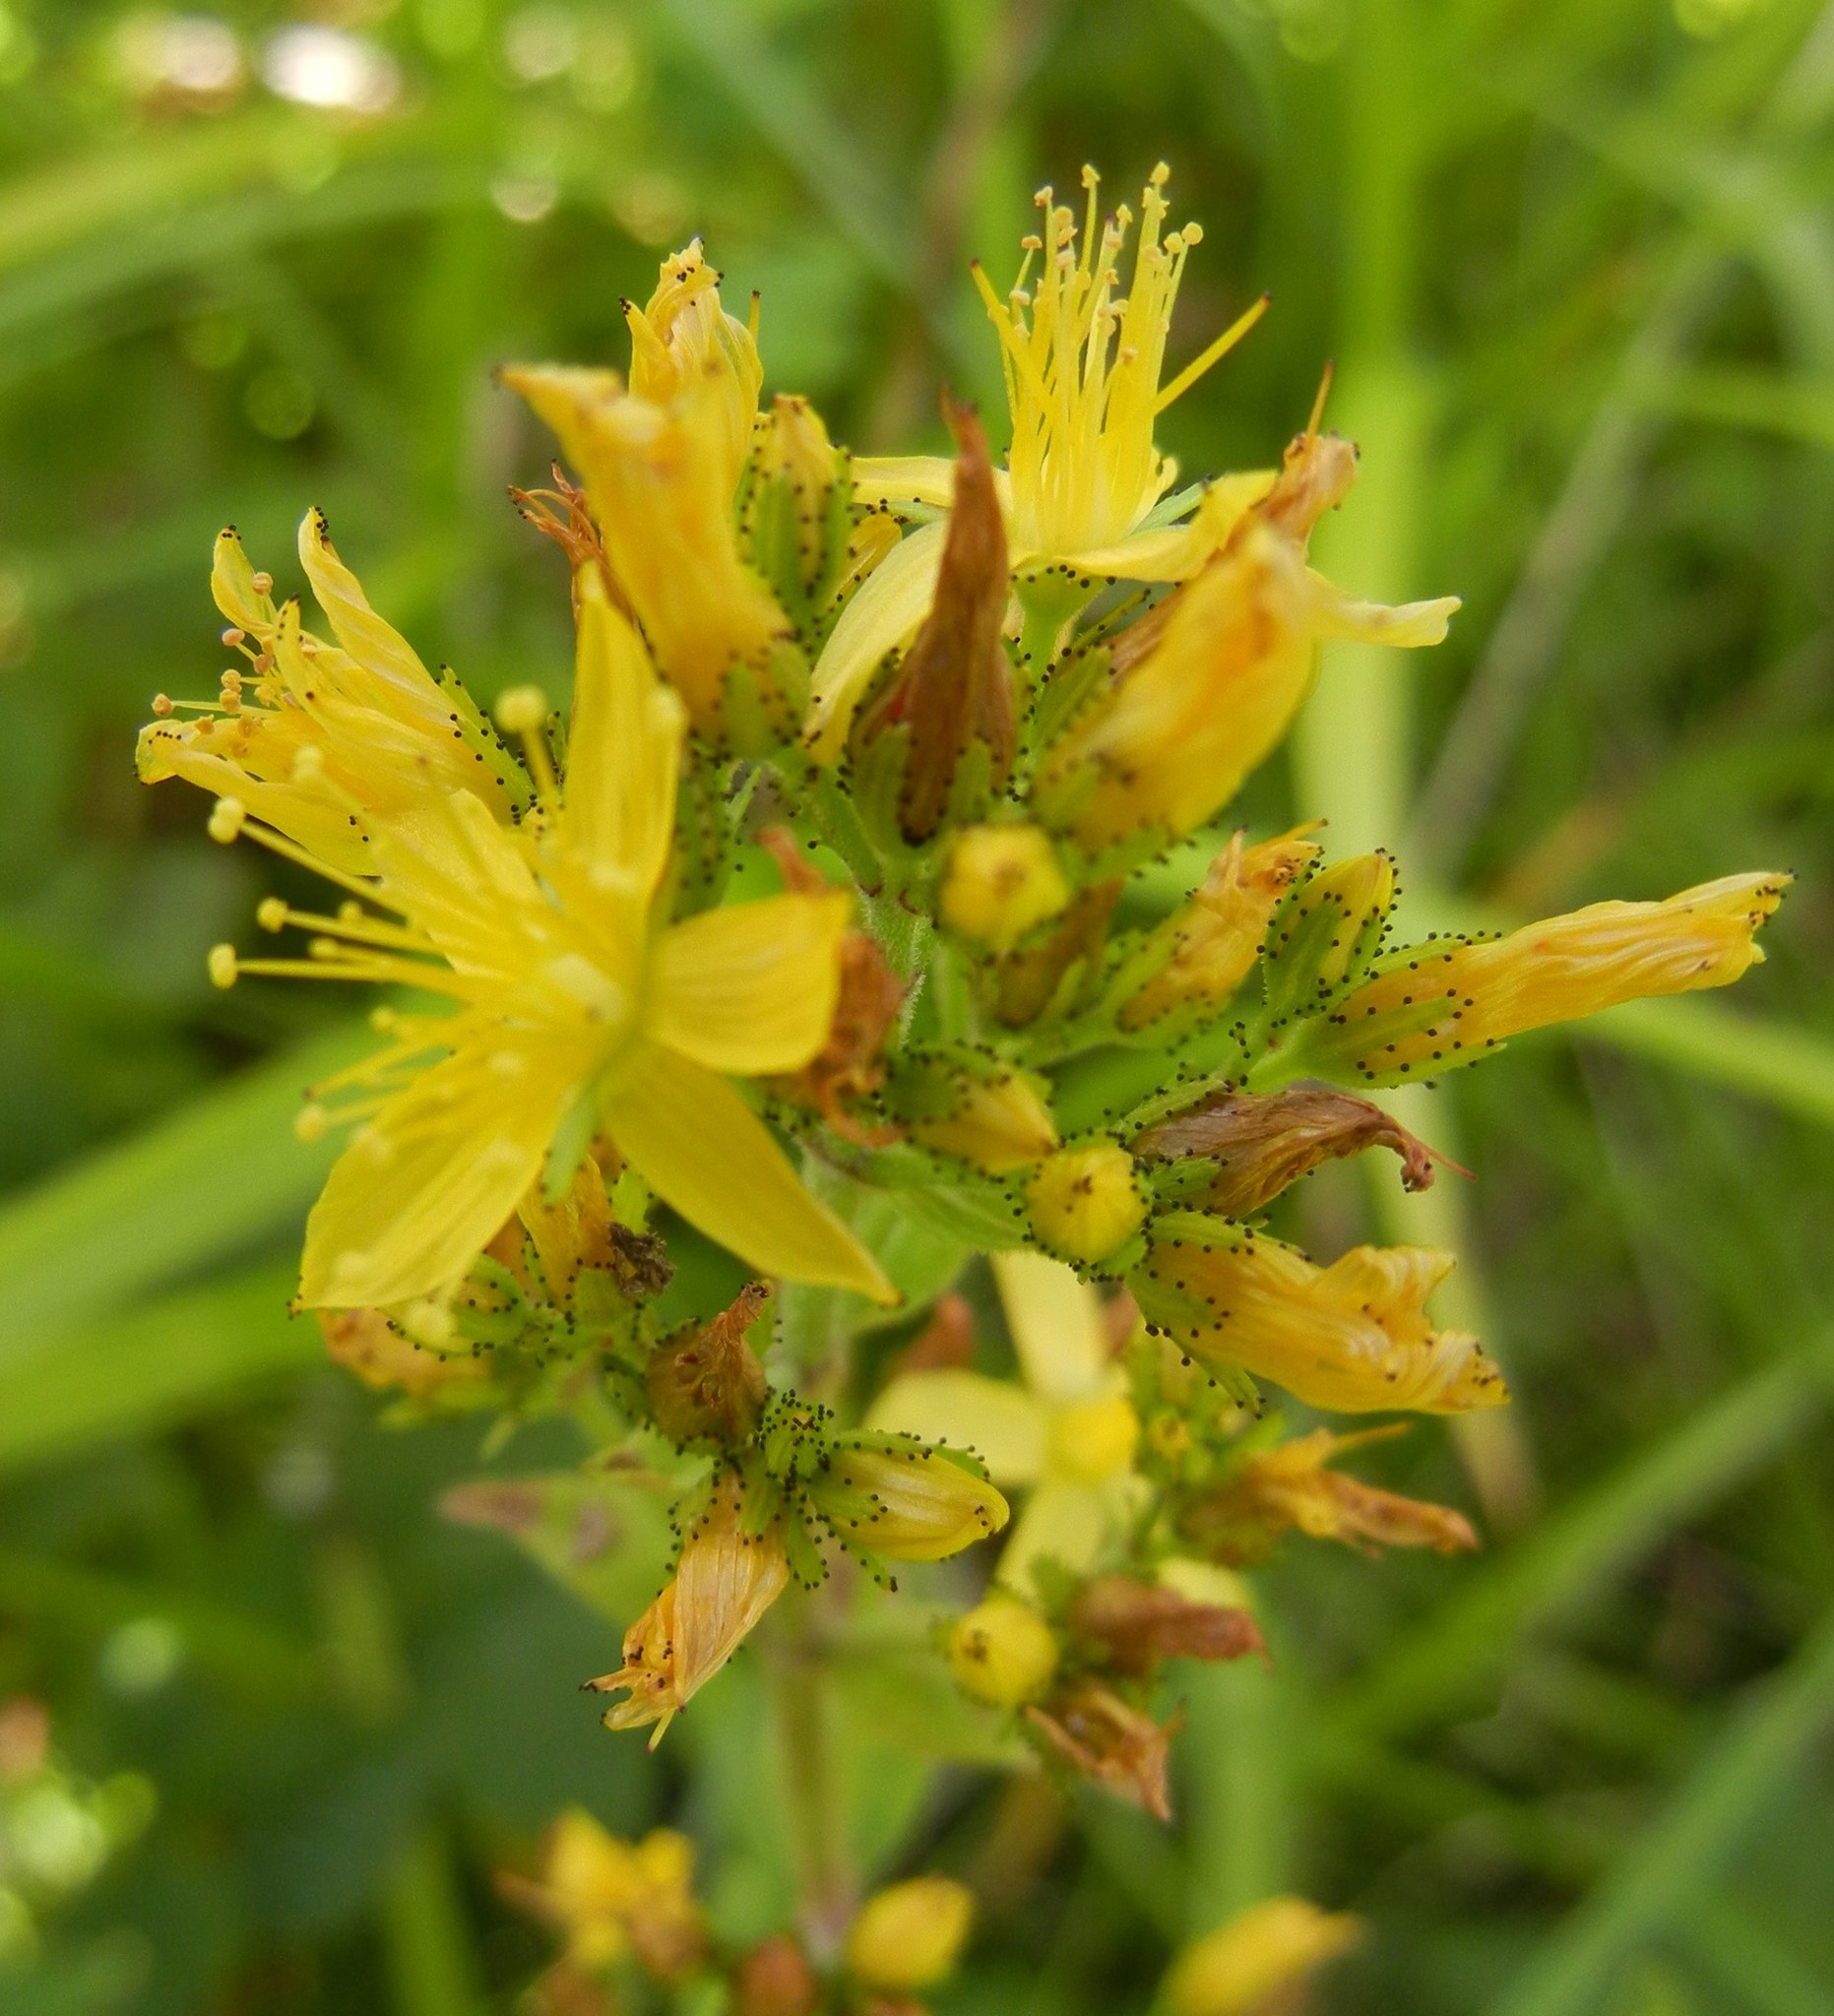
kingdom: Plantae
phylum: Tracheophyta
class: Magnoliopsida
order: Malpighiales
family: Hypericaceae
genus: Hypericum
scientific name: Hypericum hirsutum
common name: Hairy st. john's-wort
